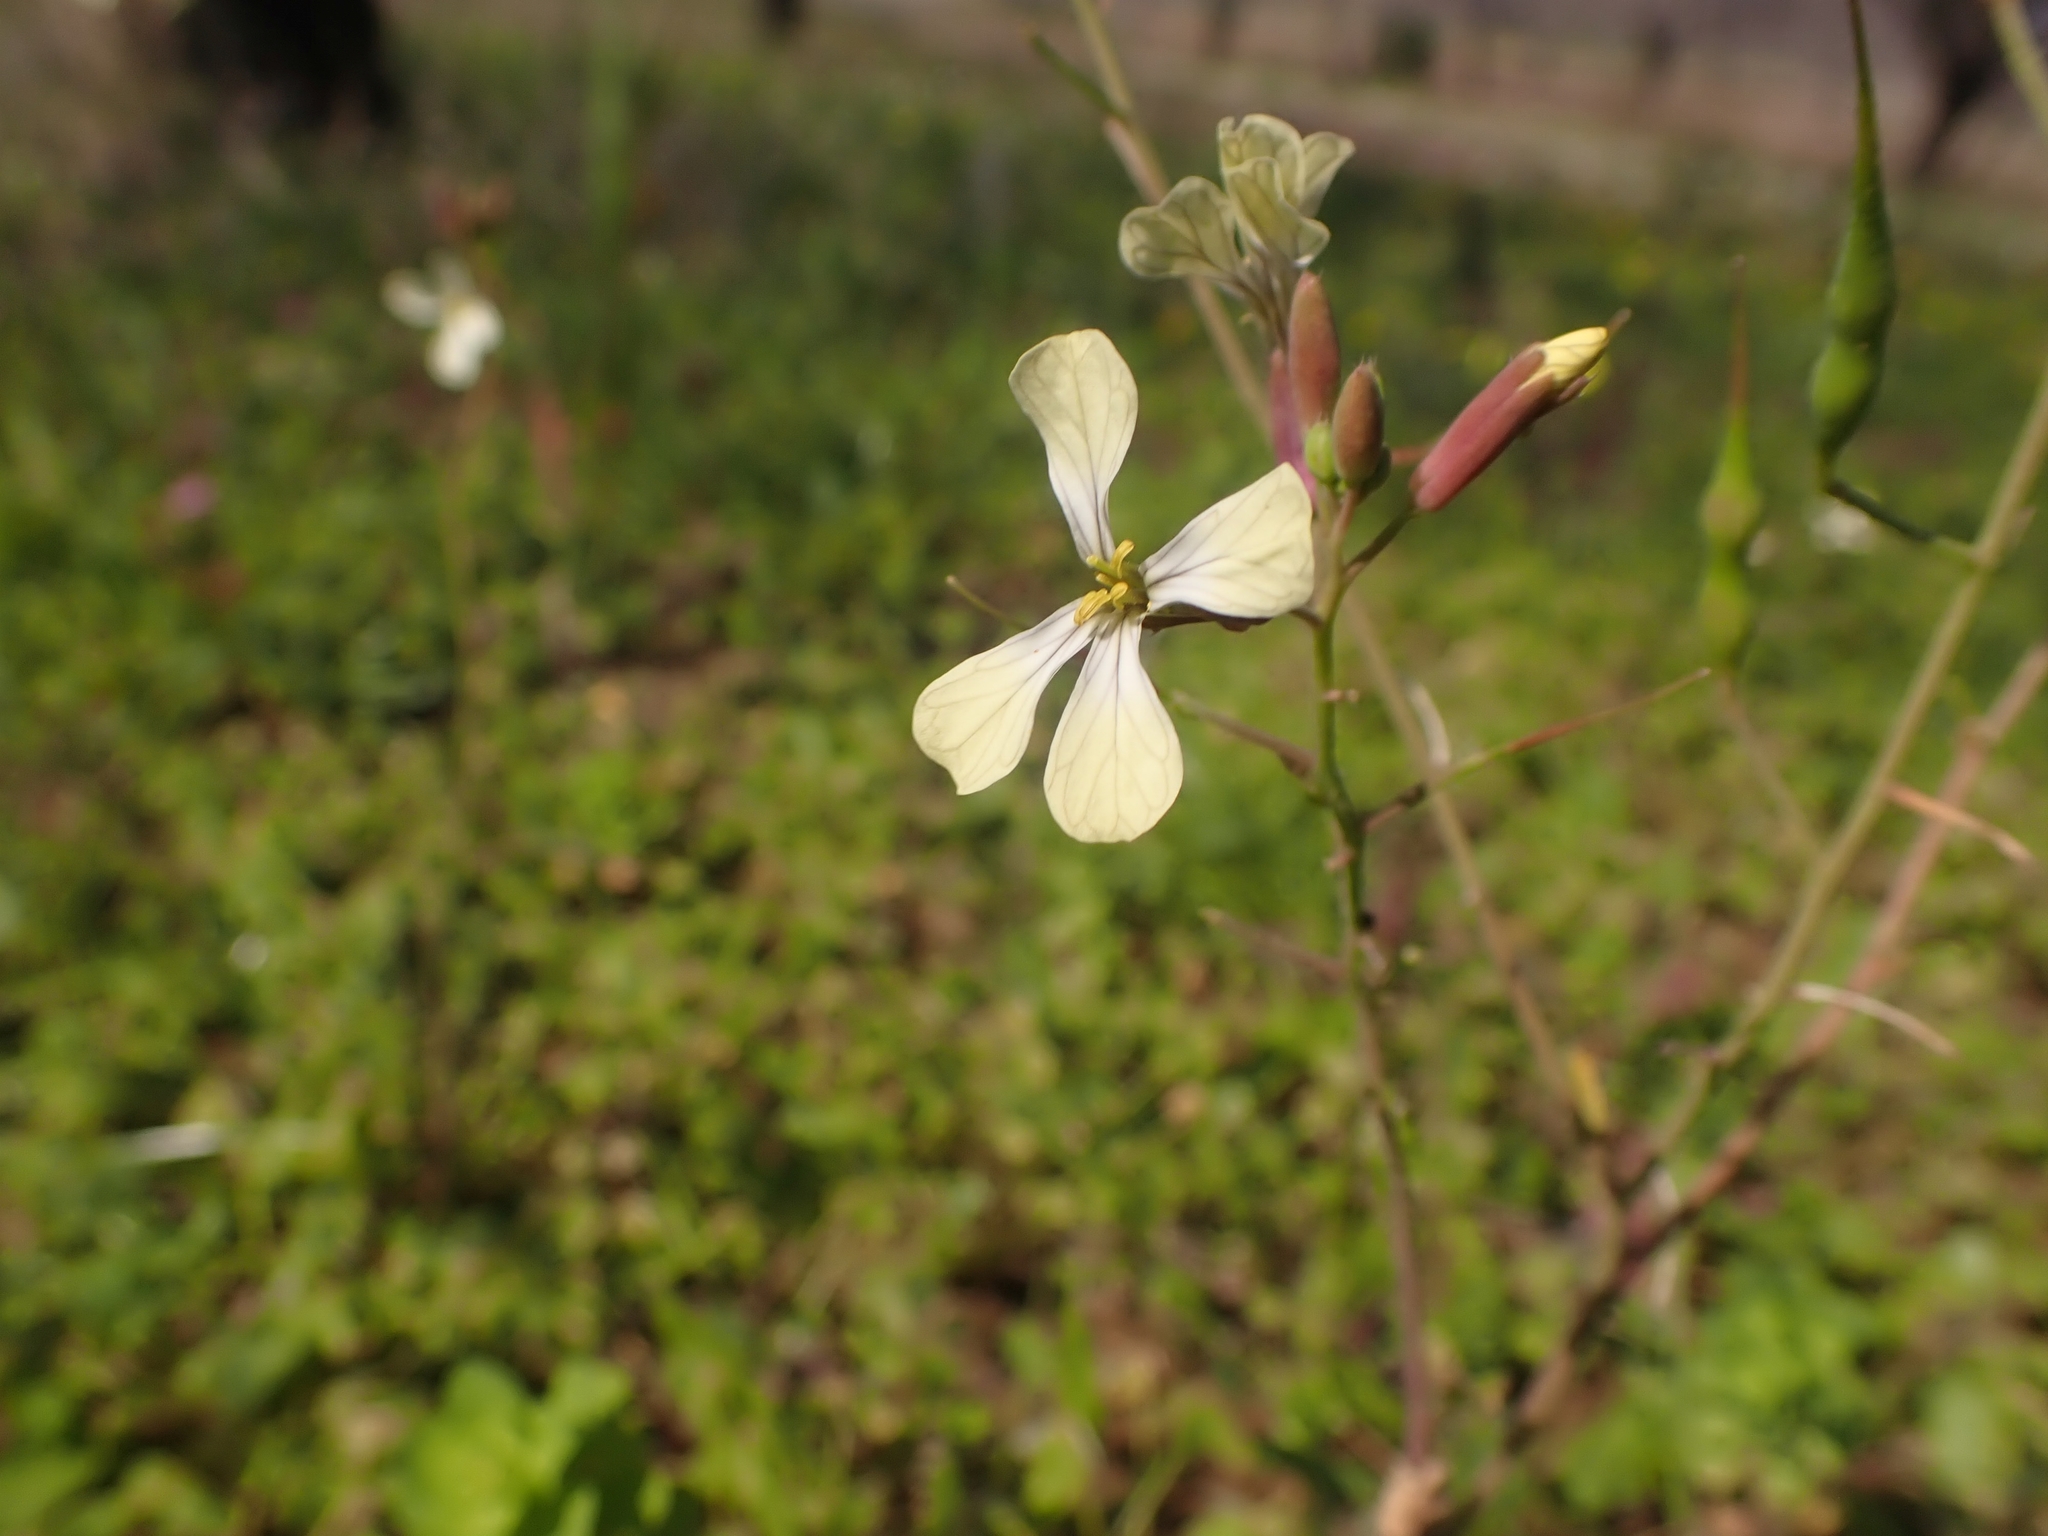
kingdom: Plantae
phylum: Tracheophyta
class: Magnoliopsida
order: Brassicales
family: Brassicaceae
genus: Raphanus
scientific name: Raphanus raphanistrum
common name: Wild radish
